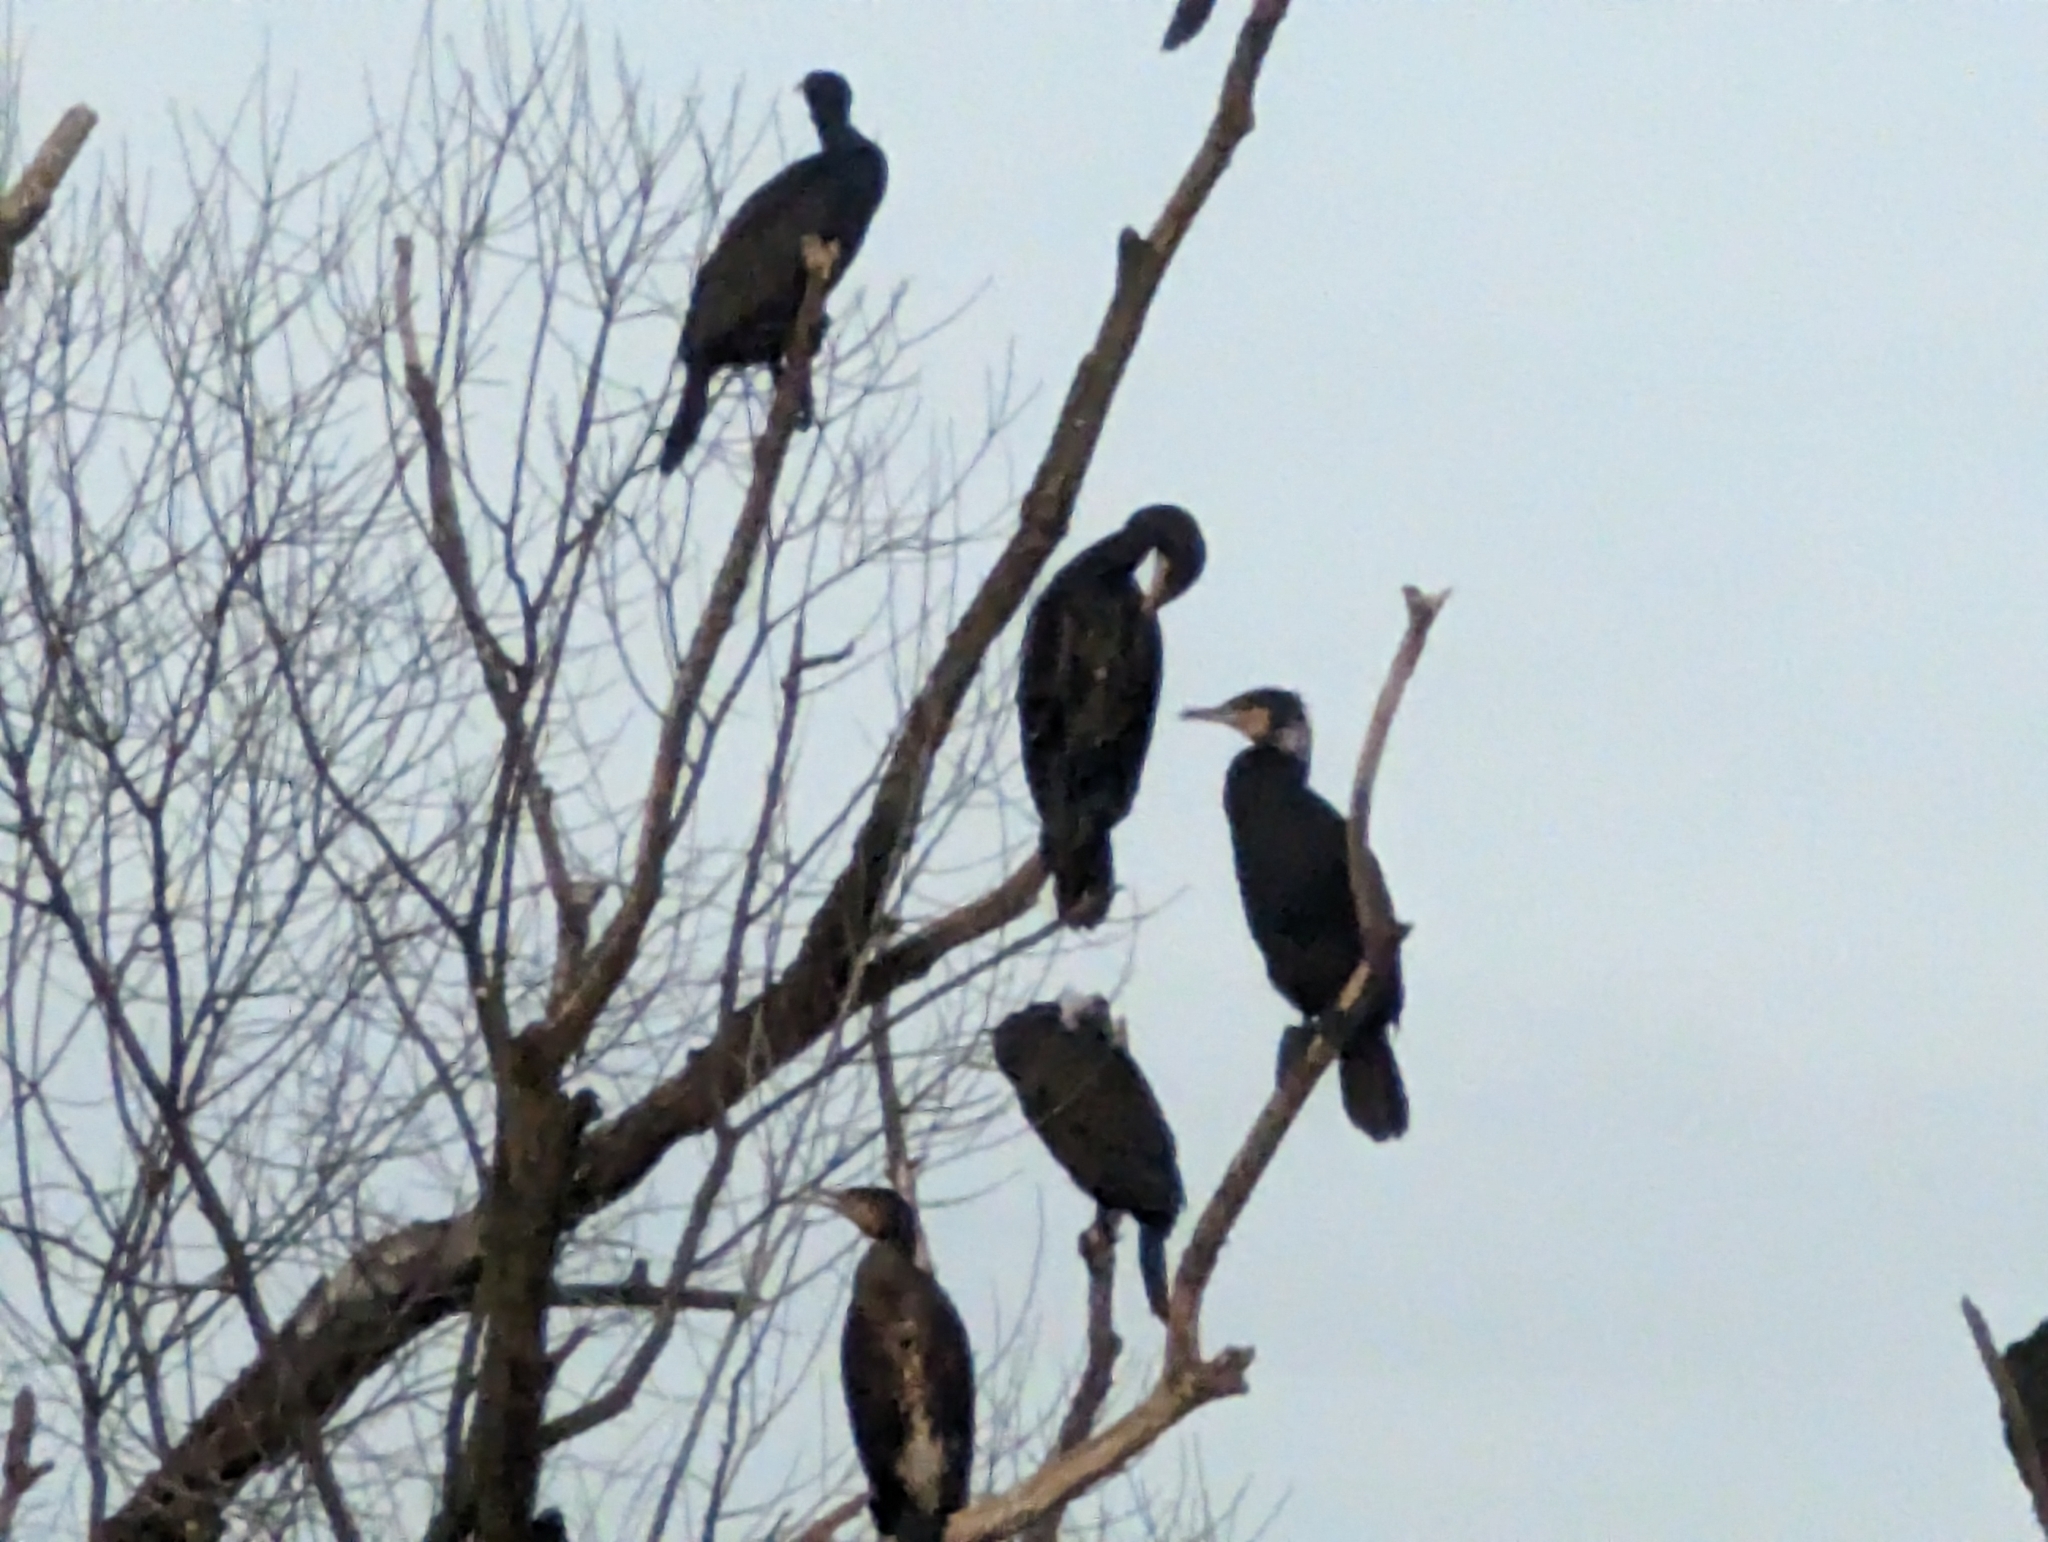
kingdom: Animalia
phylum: Chordata
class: Aves
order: Suliformes
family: Phalacrocoracidae
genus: Phalacrocorax
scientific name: Phalacrocorax carbo
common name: Great cormorant
